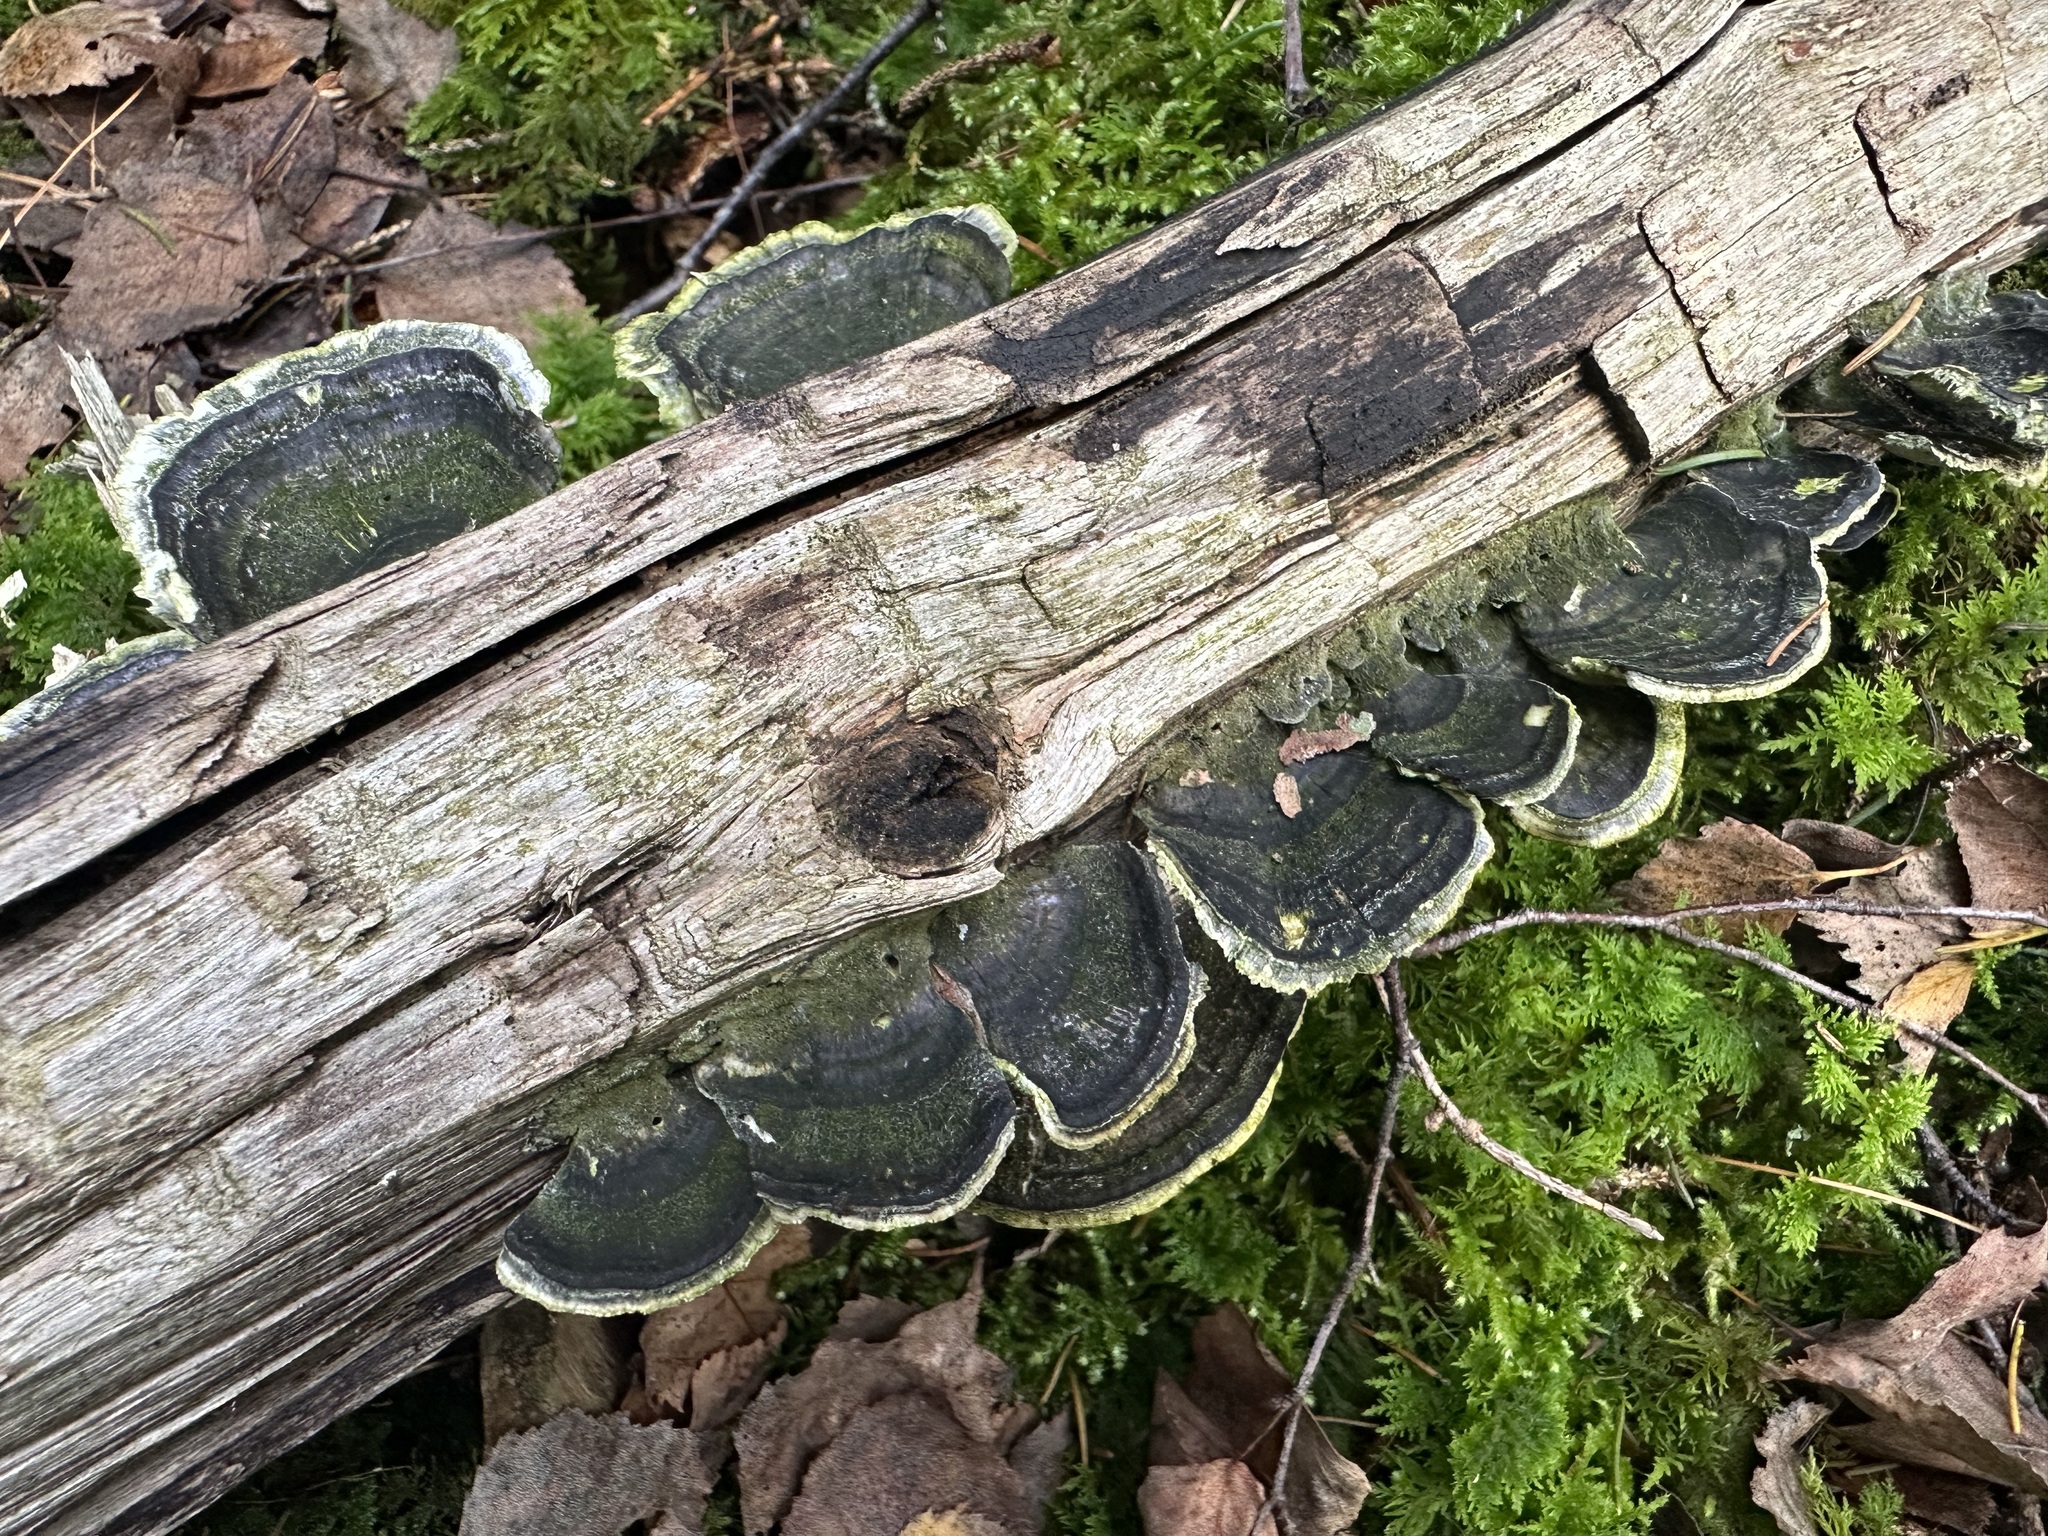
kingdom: Fungi
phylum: Basidiomycota
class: Agaricomycetes
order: Polyporales
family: Polyporaceae
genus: Trametes
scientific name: Trametes versicolor
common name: Turkeytail
